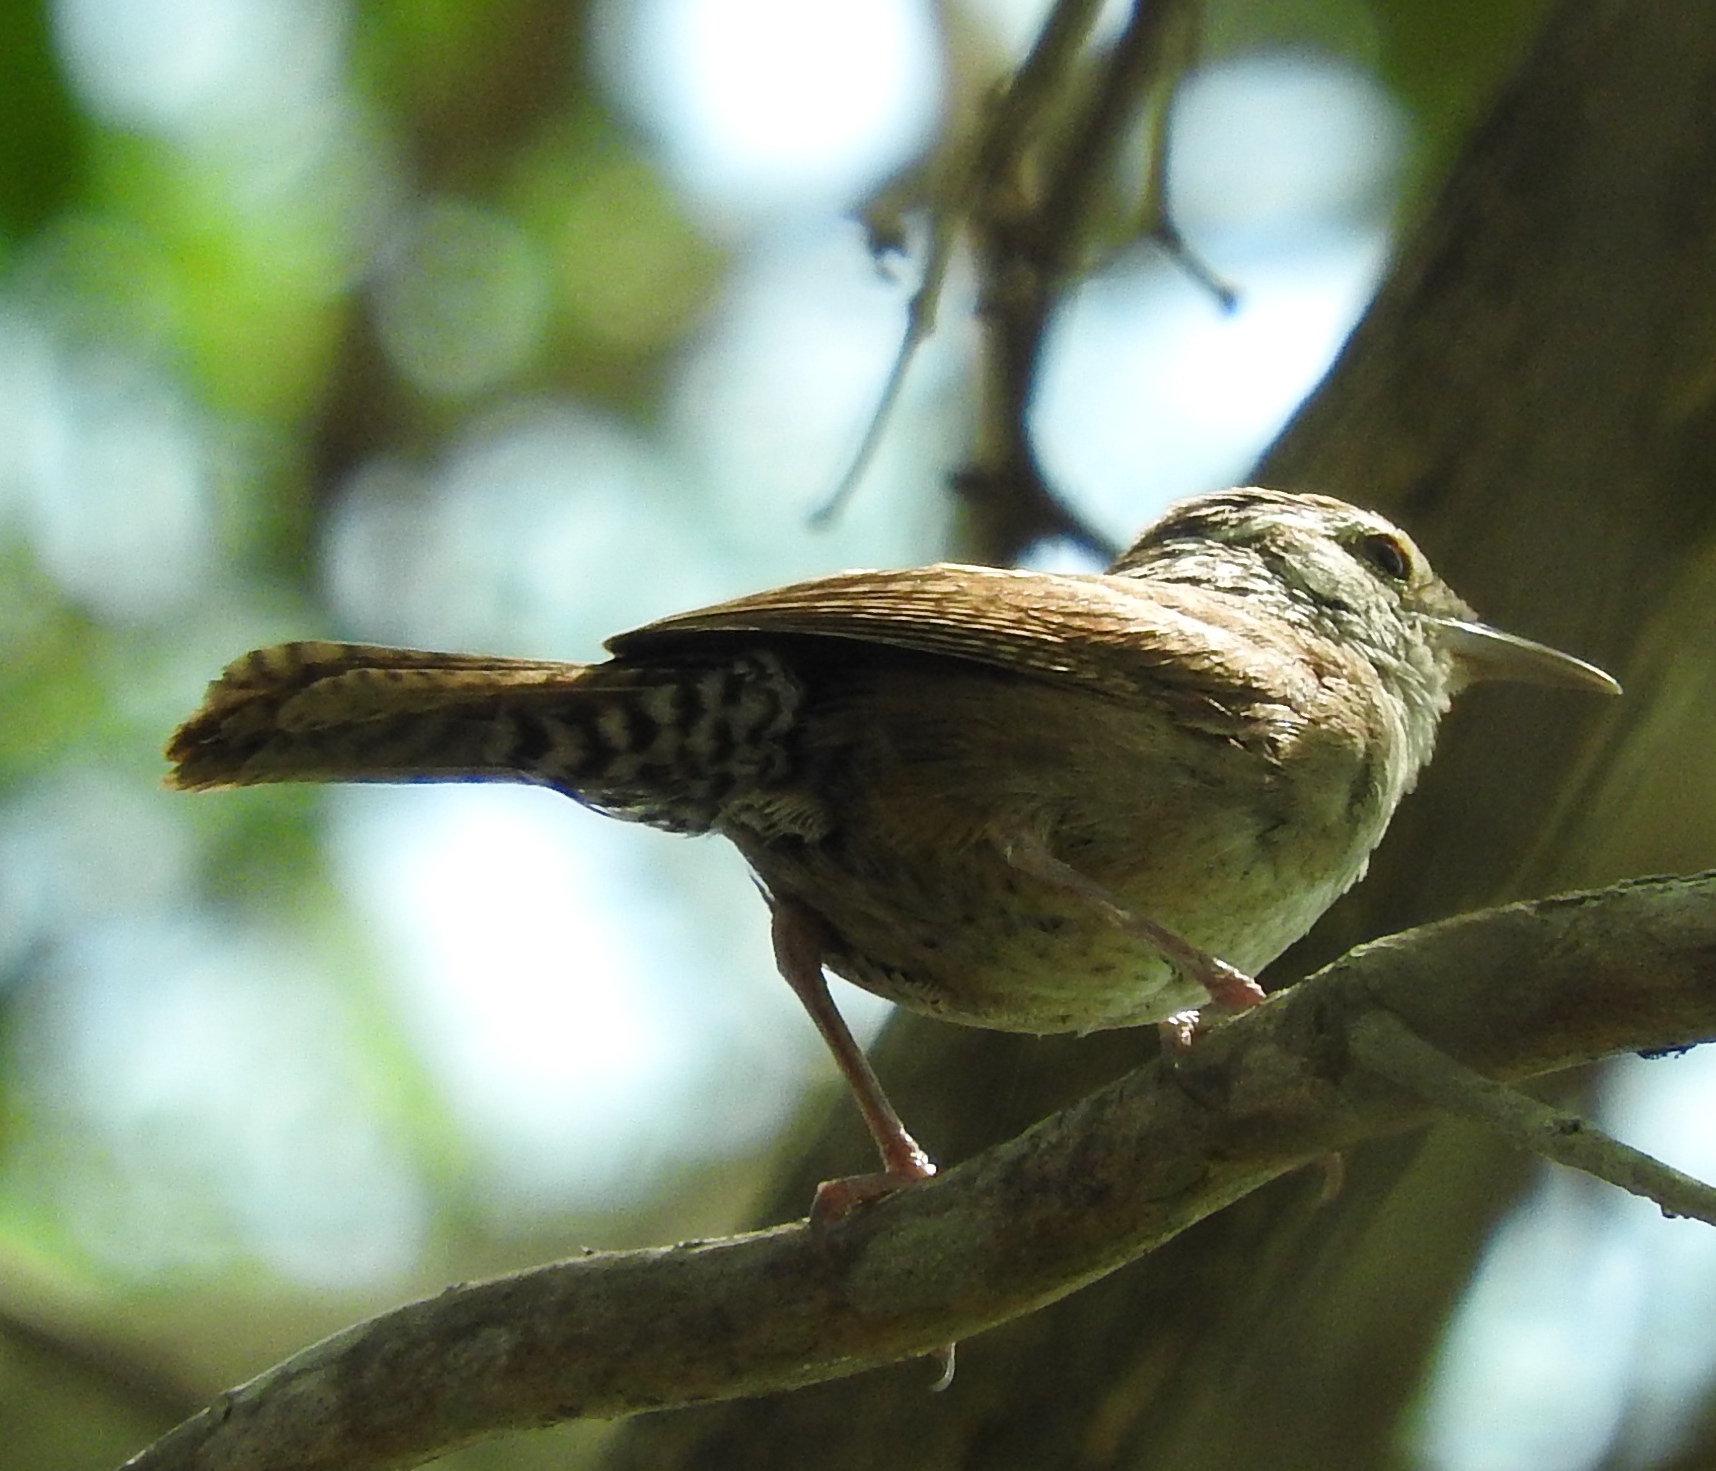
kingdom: Animalia
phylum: Chordata
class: Aves
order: Passeriformes
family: Troglodytidae
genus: Thryophilus
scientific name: Thryophilus sinaloa
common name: Sinaloa wren
